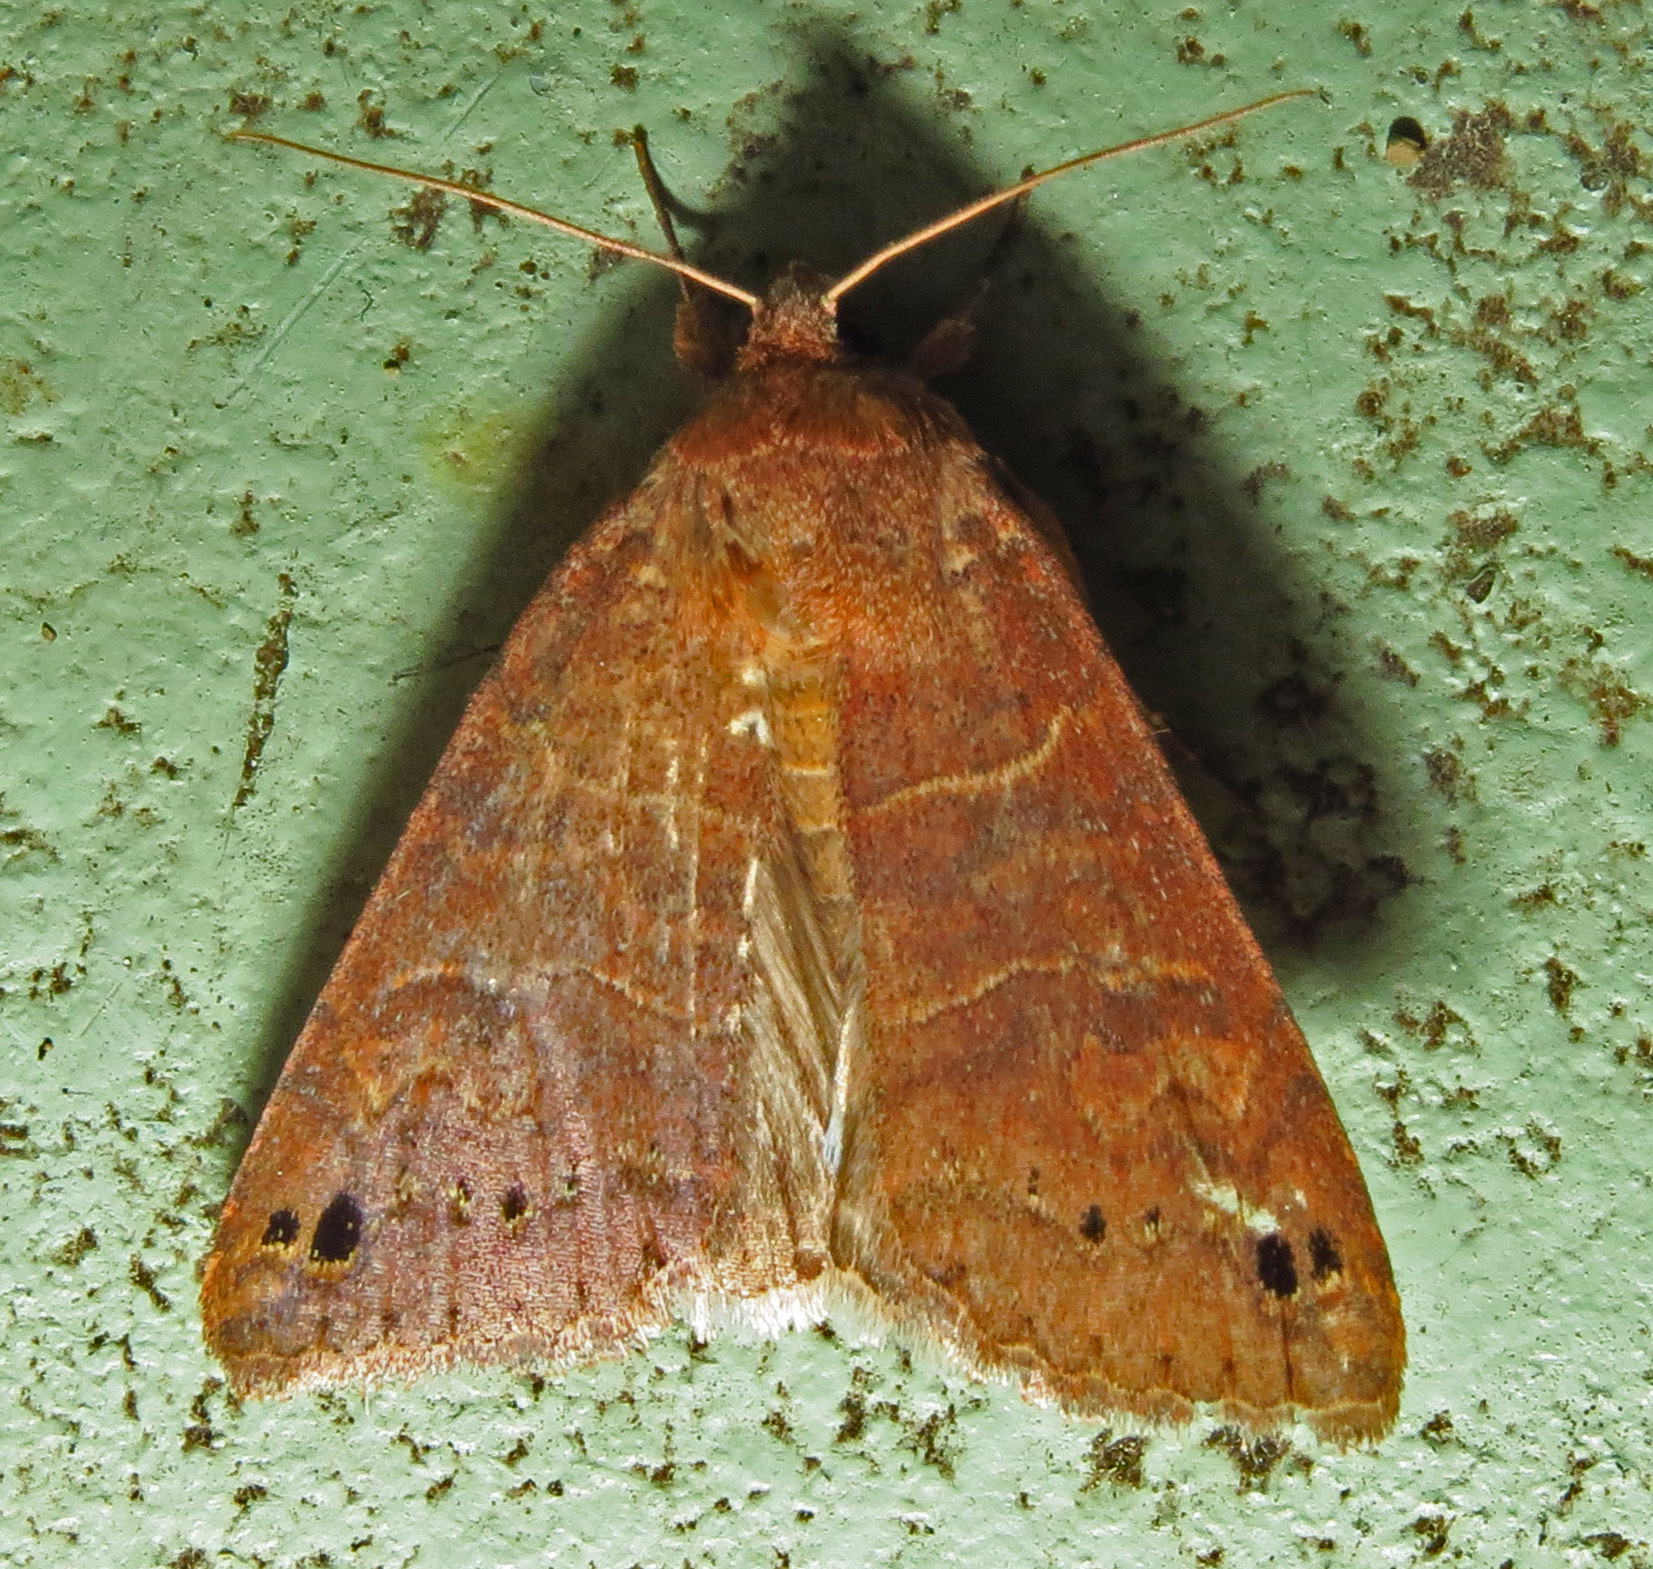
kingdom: Animalia
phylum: Arthropoda
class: Insecta
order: Lepidoptera
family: Erebidae
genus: Cissusa
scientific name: Cissusa spadix
